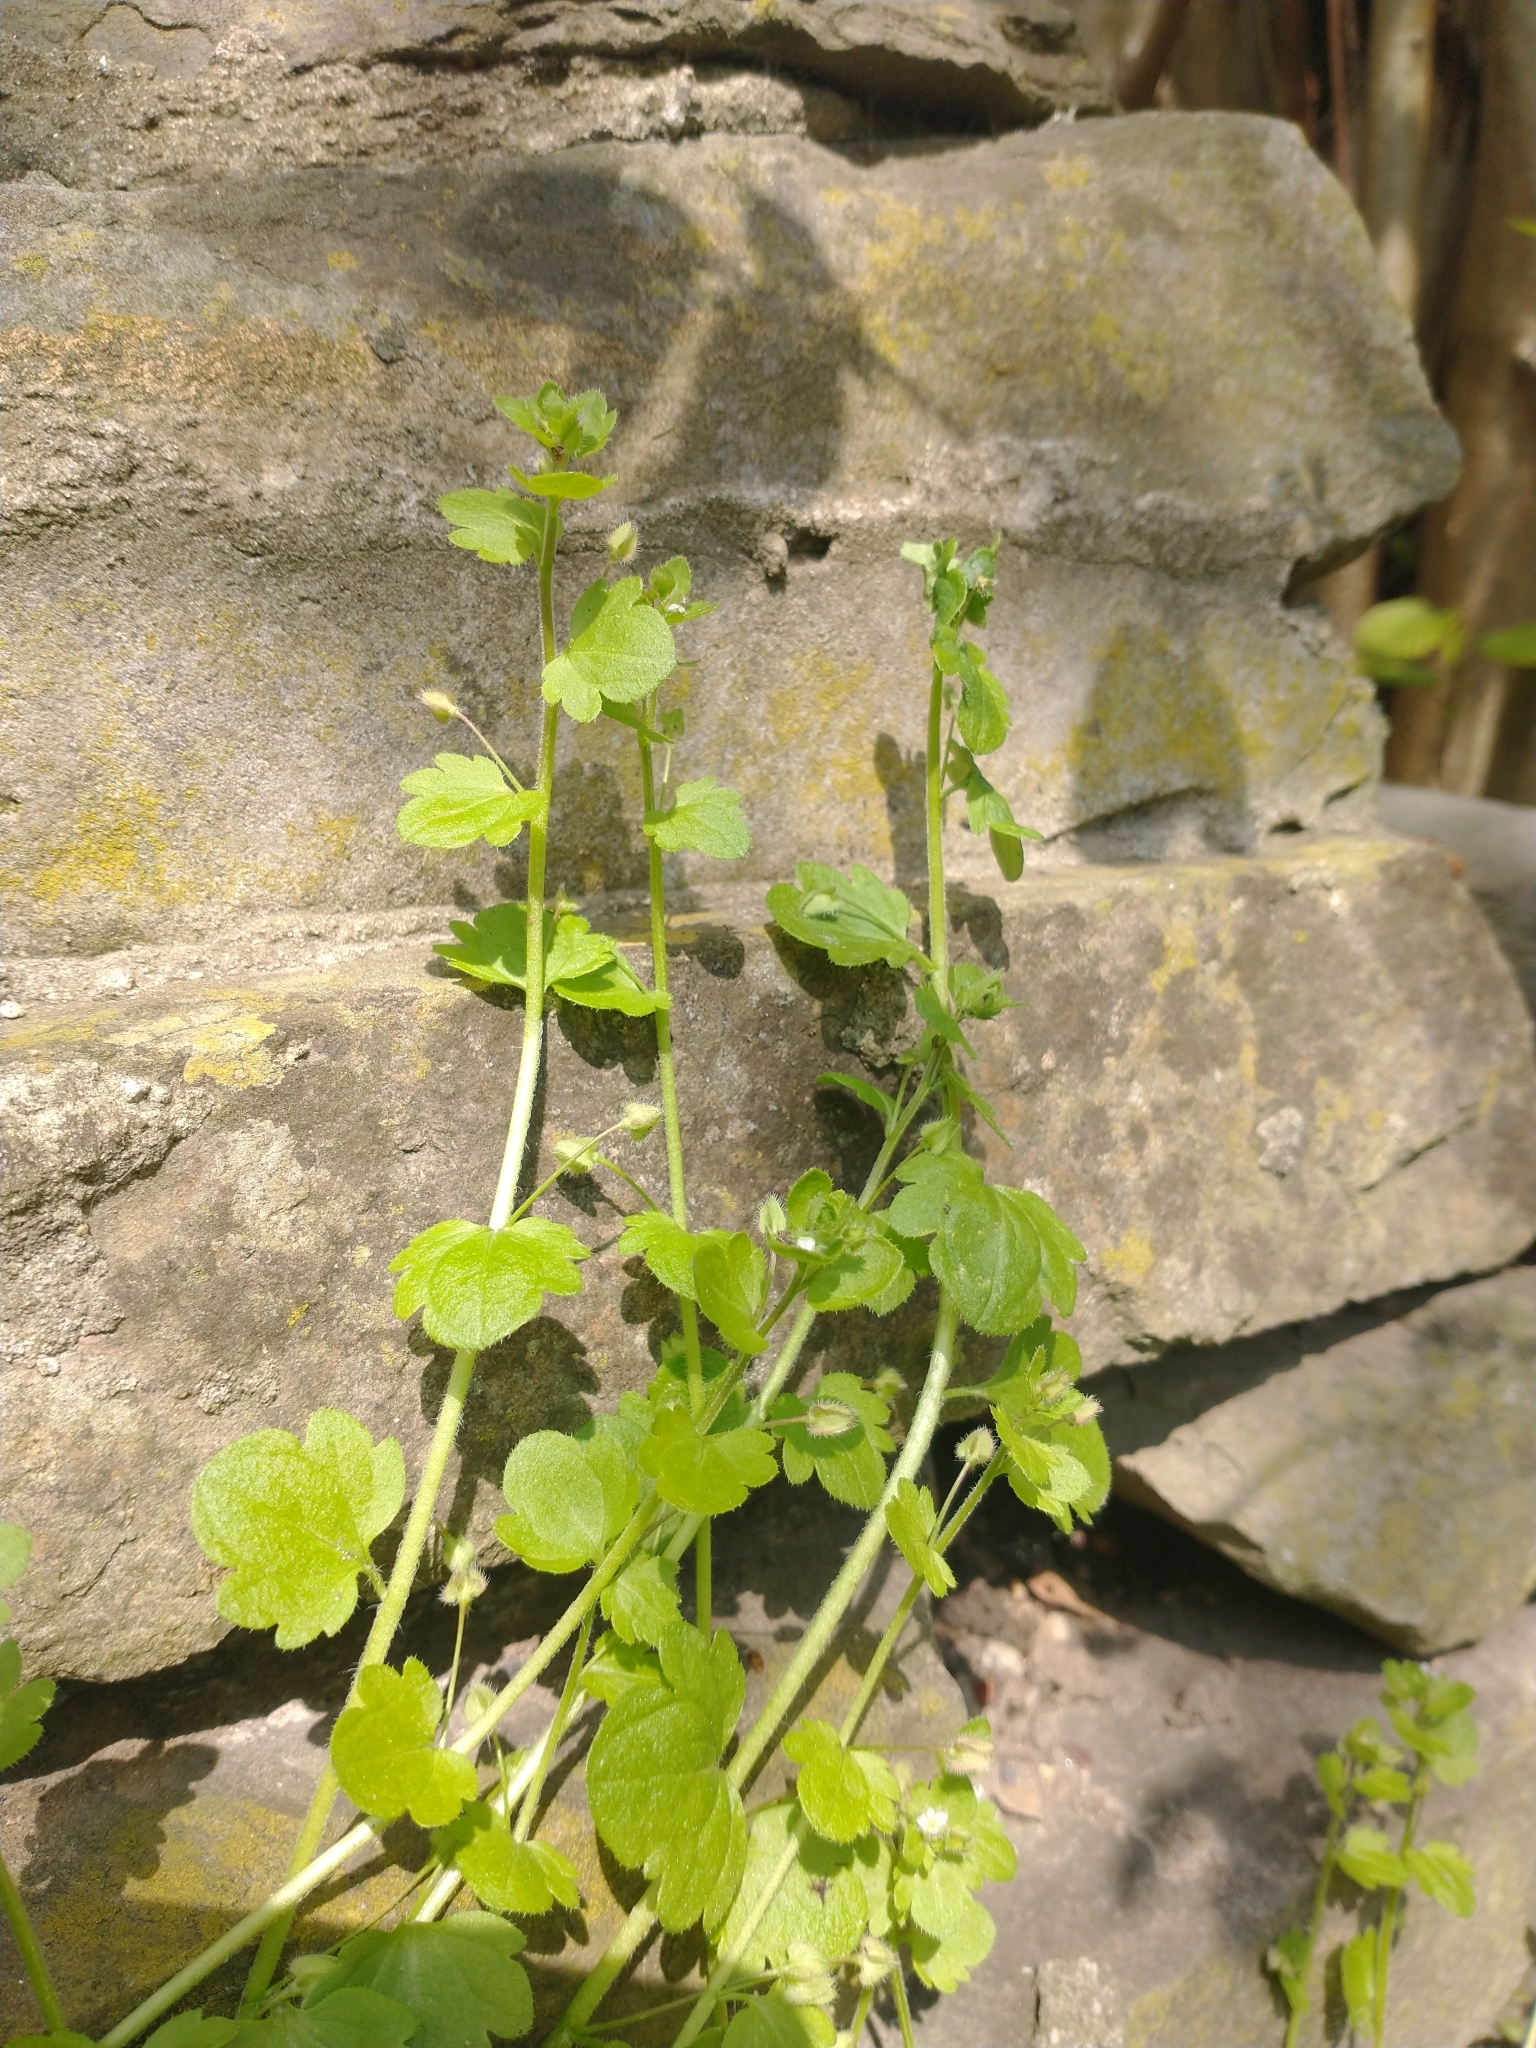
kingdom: Plantae
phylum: Tracheophyta
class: Magnoliopsida
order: Lamiales
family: Plantaginaceae
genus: Veronica
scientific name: Veronica sublobata
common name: False ivy-leaved speedwell
